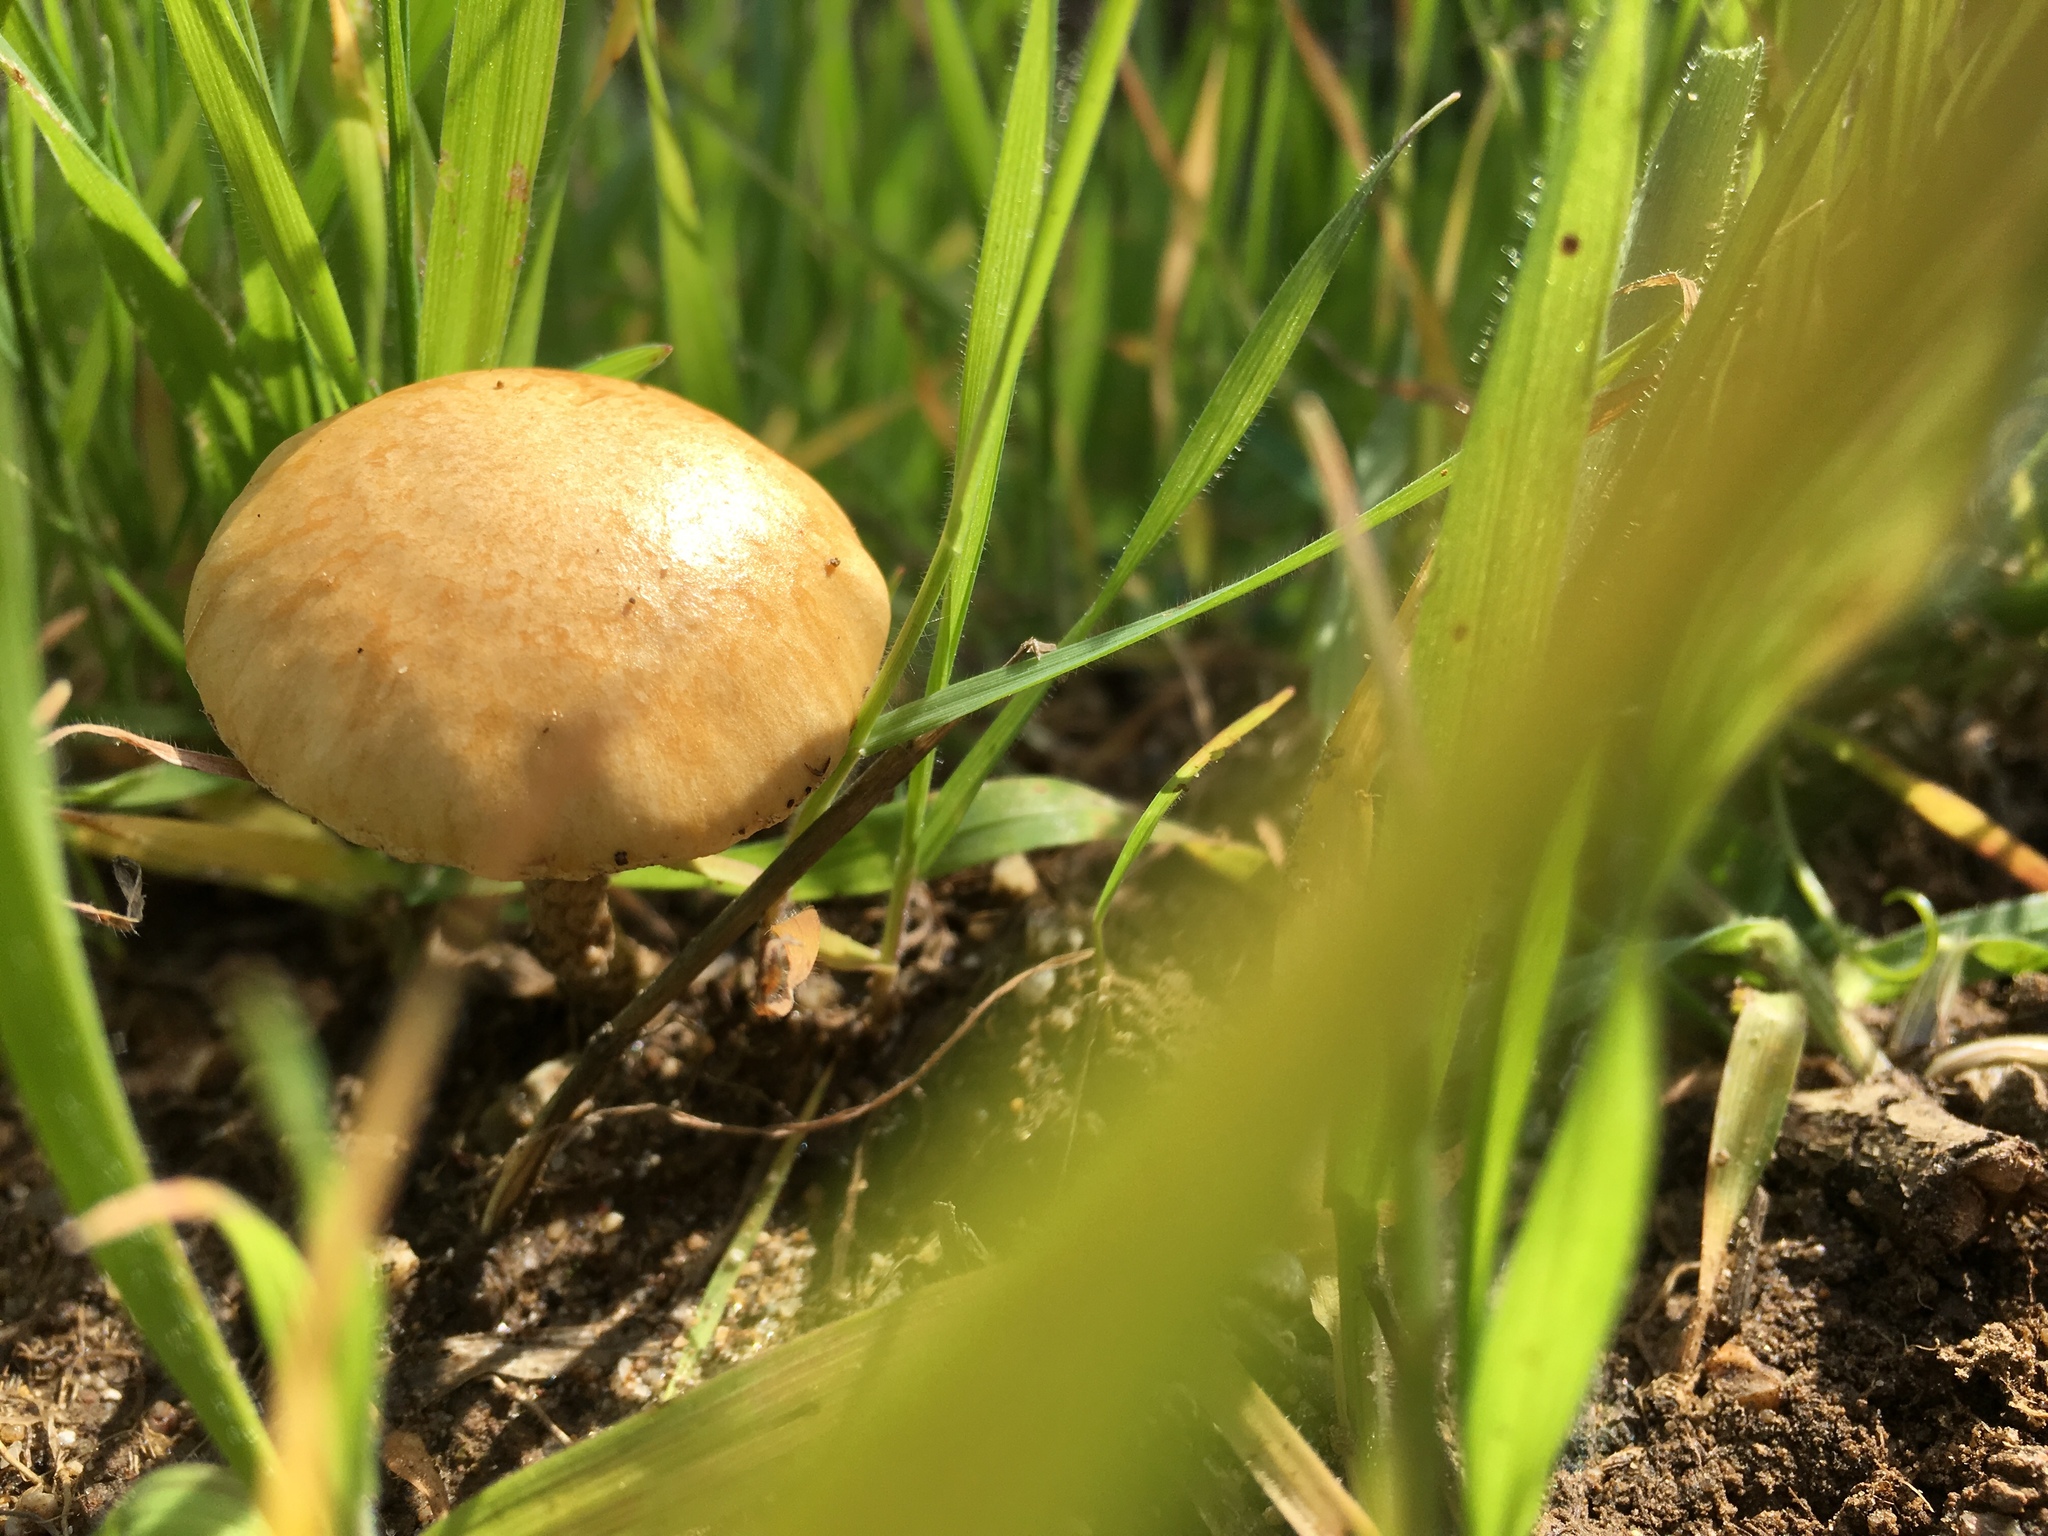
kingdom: Fungi
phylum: Basidiomycota
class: Agaricomycetes
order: Agaricales
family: Strophariaceae
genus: Agrocybe
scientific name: Agrocybe pediades
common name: Common fieldcap
